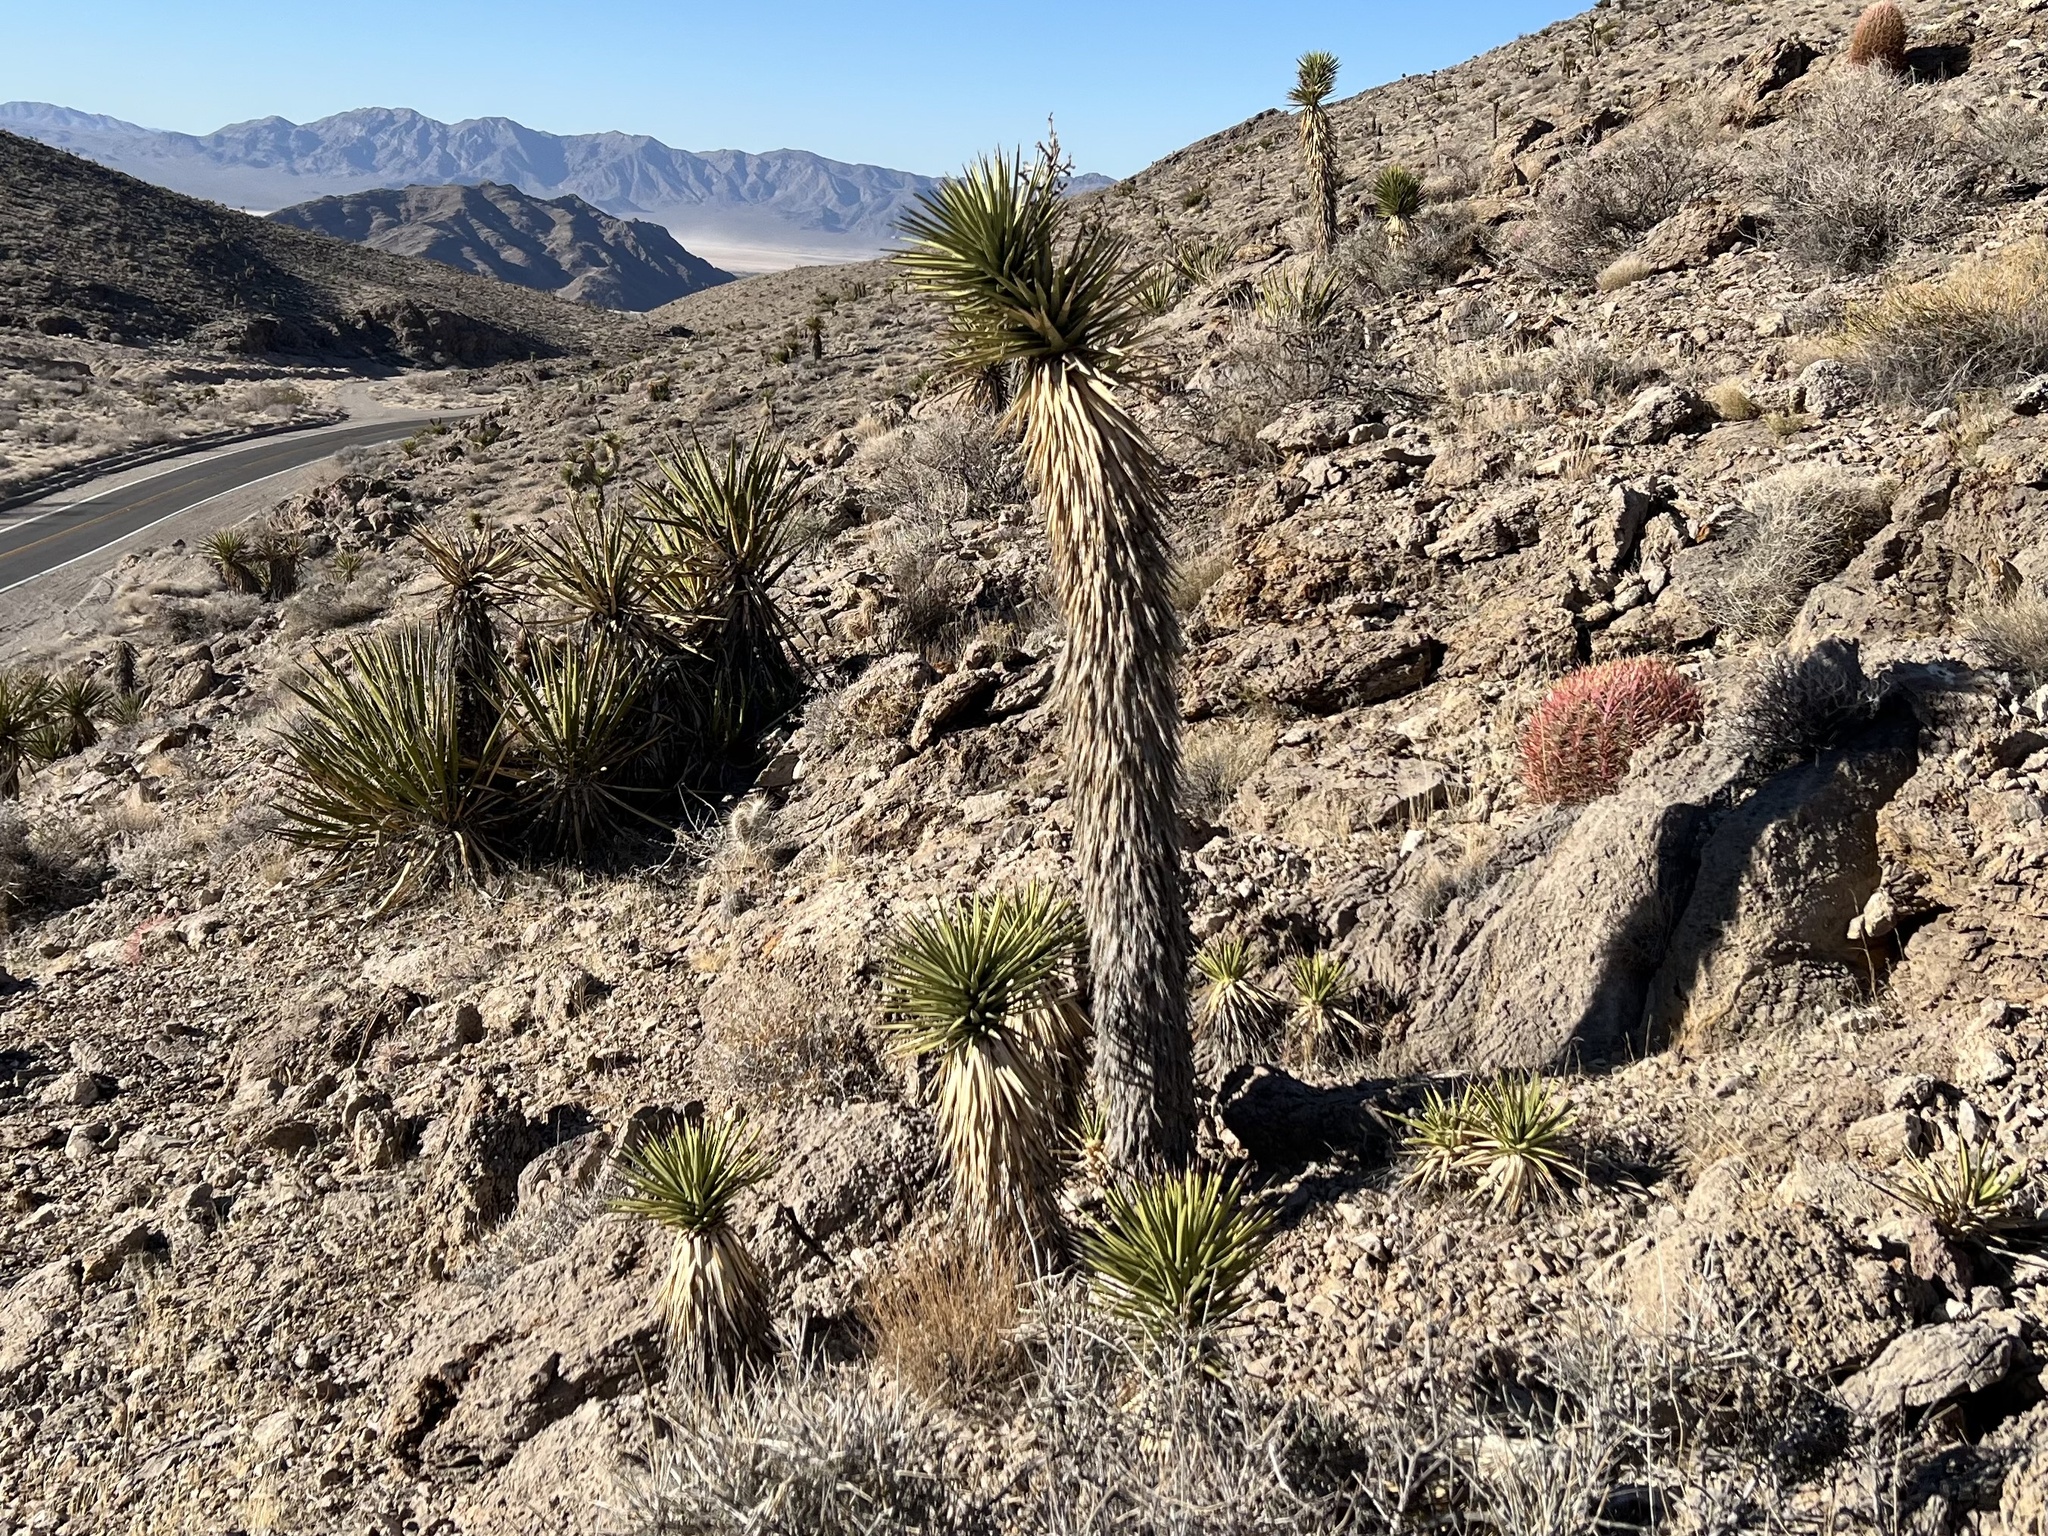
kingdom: Plantae
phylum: Tracheophyta
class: Liliopsida
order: Asparagales
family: Asparagaceae
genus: Yucca
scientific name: Yucca brevifolia
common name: Joshua tree
